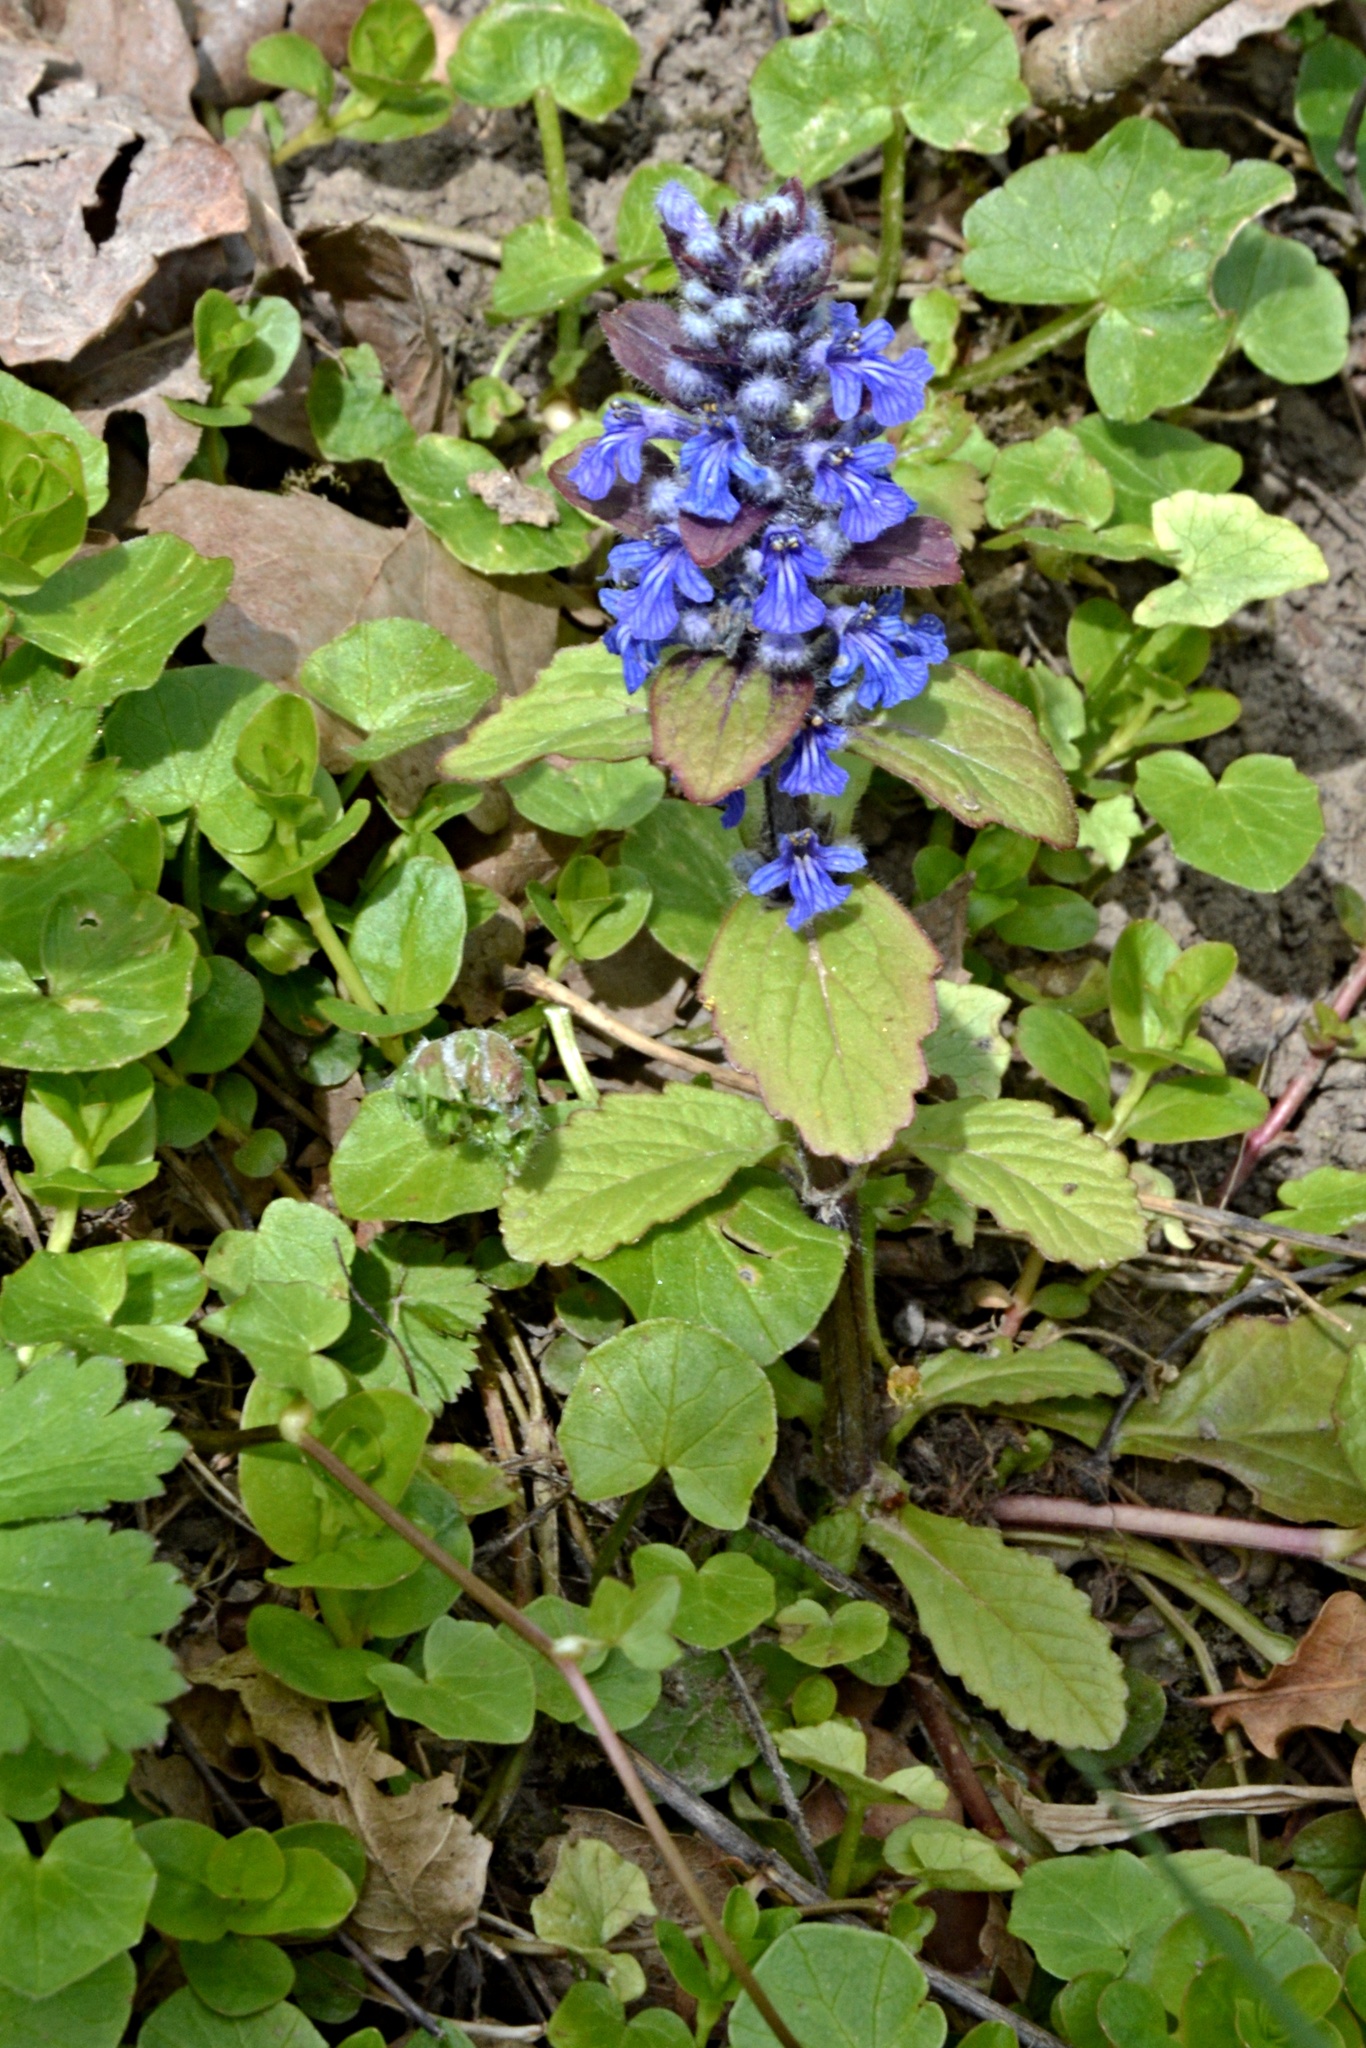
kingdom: Plantae
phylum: Tracheophyta
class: Magnoliopsida
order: Lamiales
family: Lamiaceae
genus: Ajuga
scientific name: Ajuga reptans
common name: Bugle
